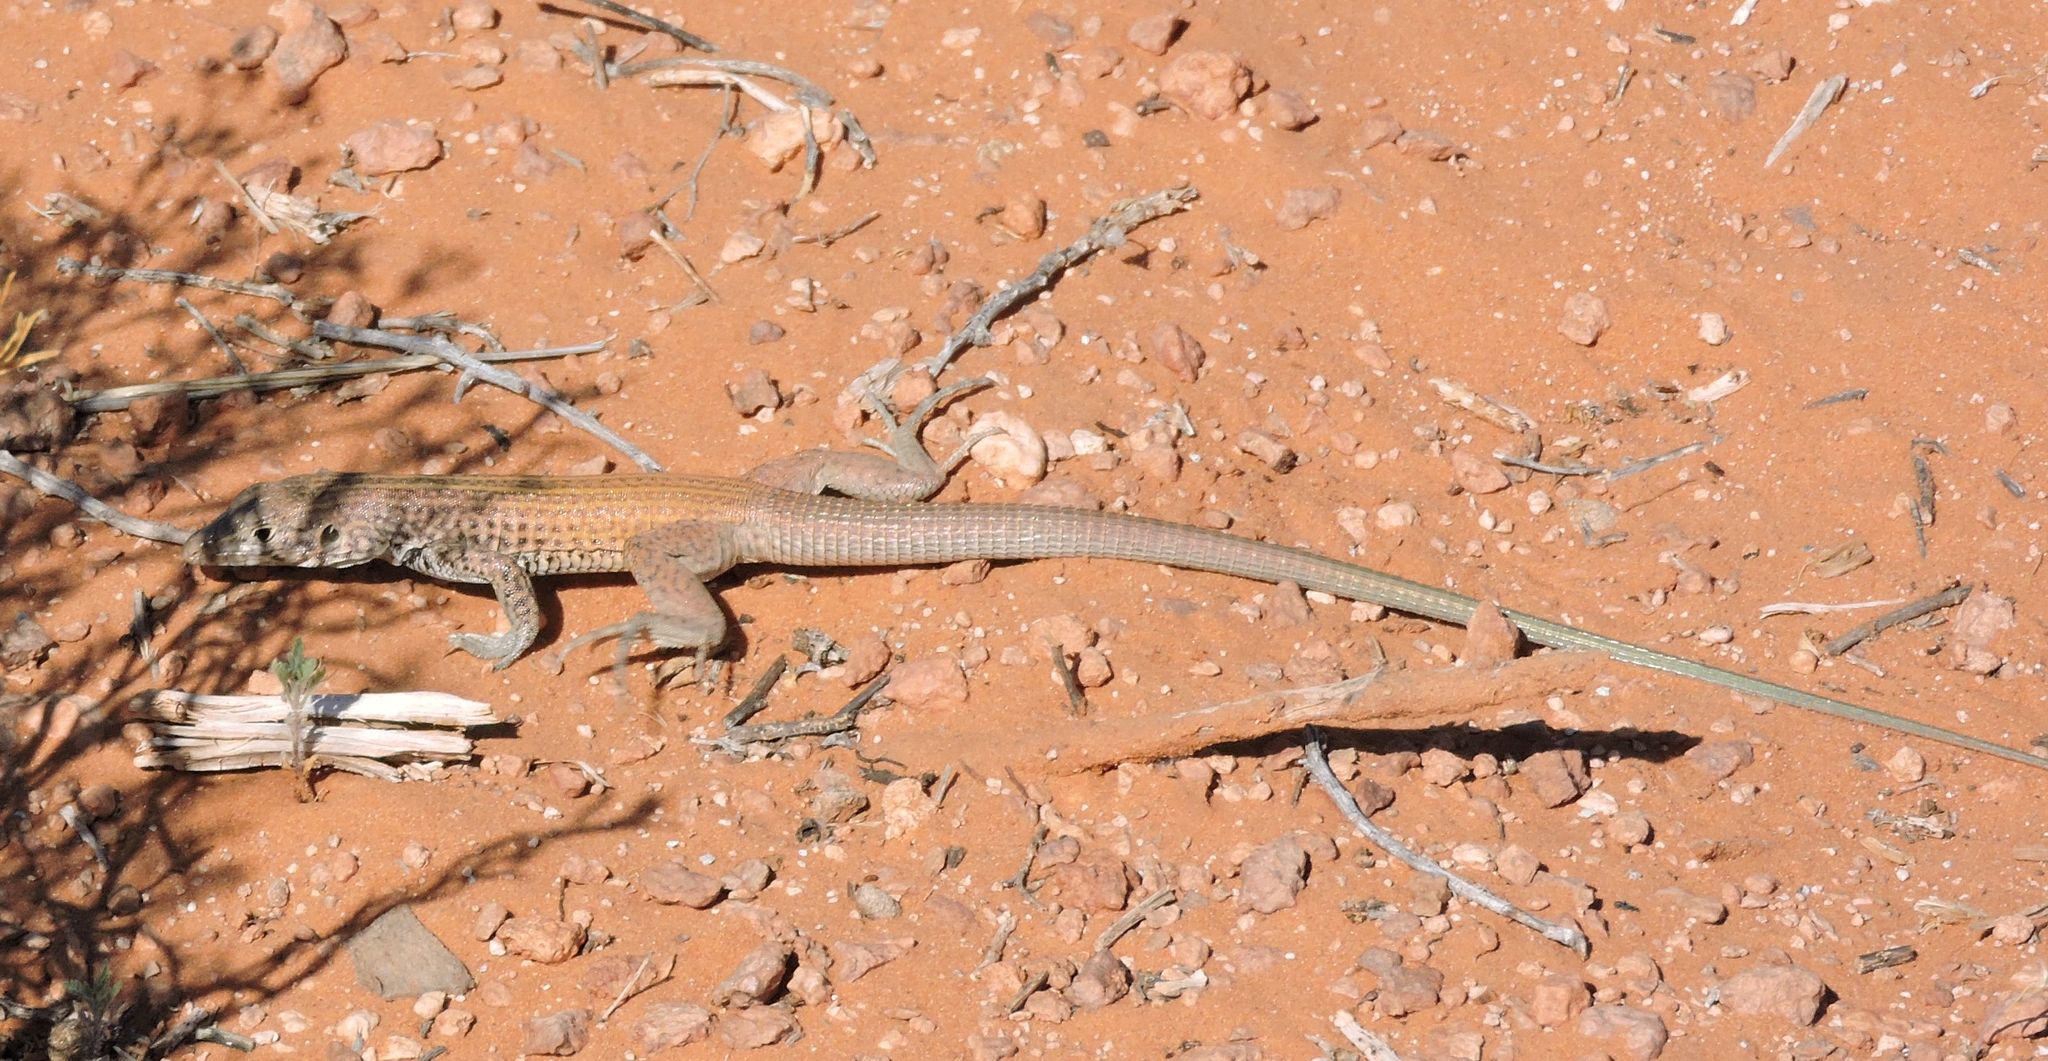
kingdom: Animalia
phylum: Chordata
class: Squamata
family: Teiidae
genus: Aspidoscelis
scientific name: Aspidoscelis tigris
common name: Tiger whiptail
